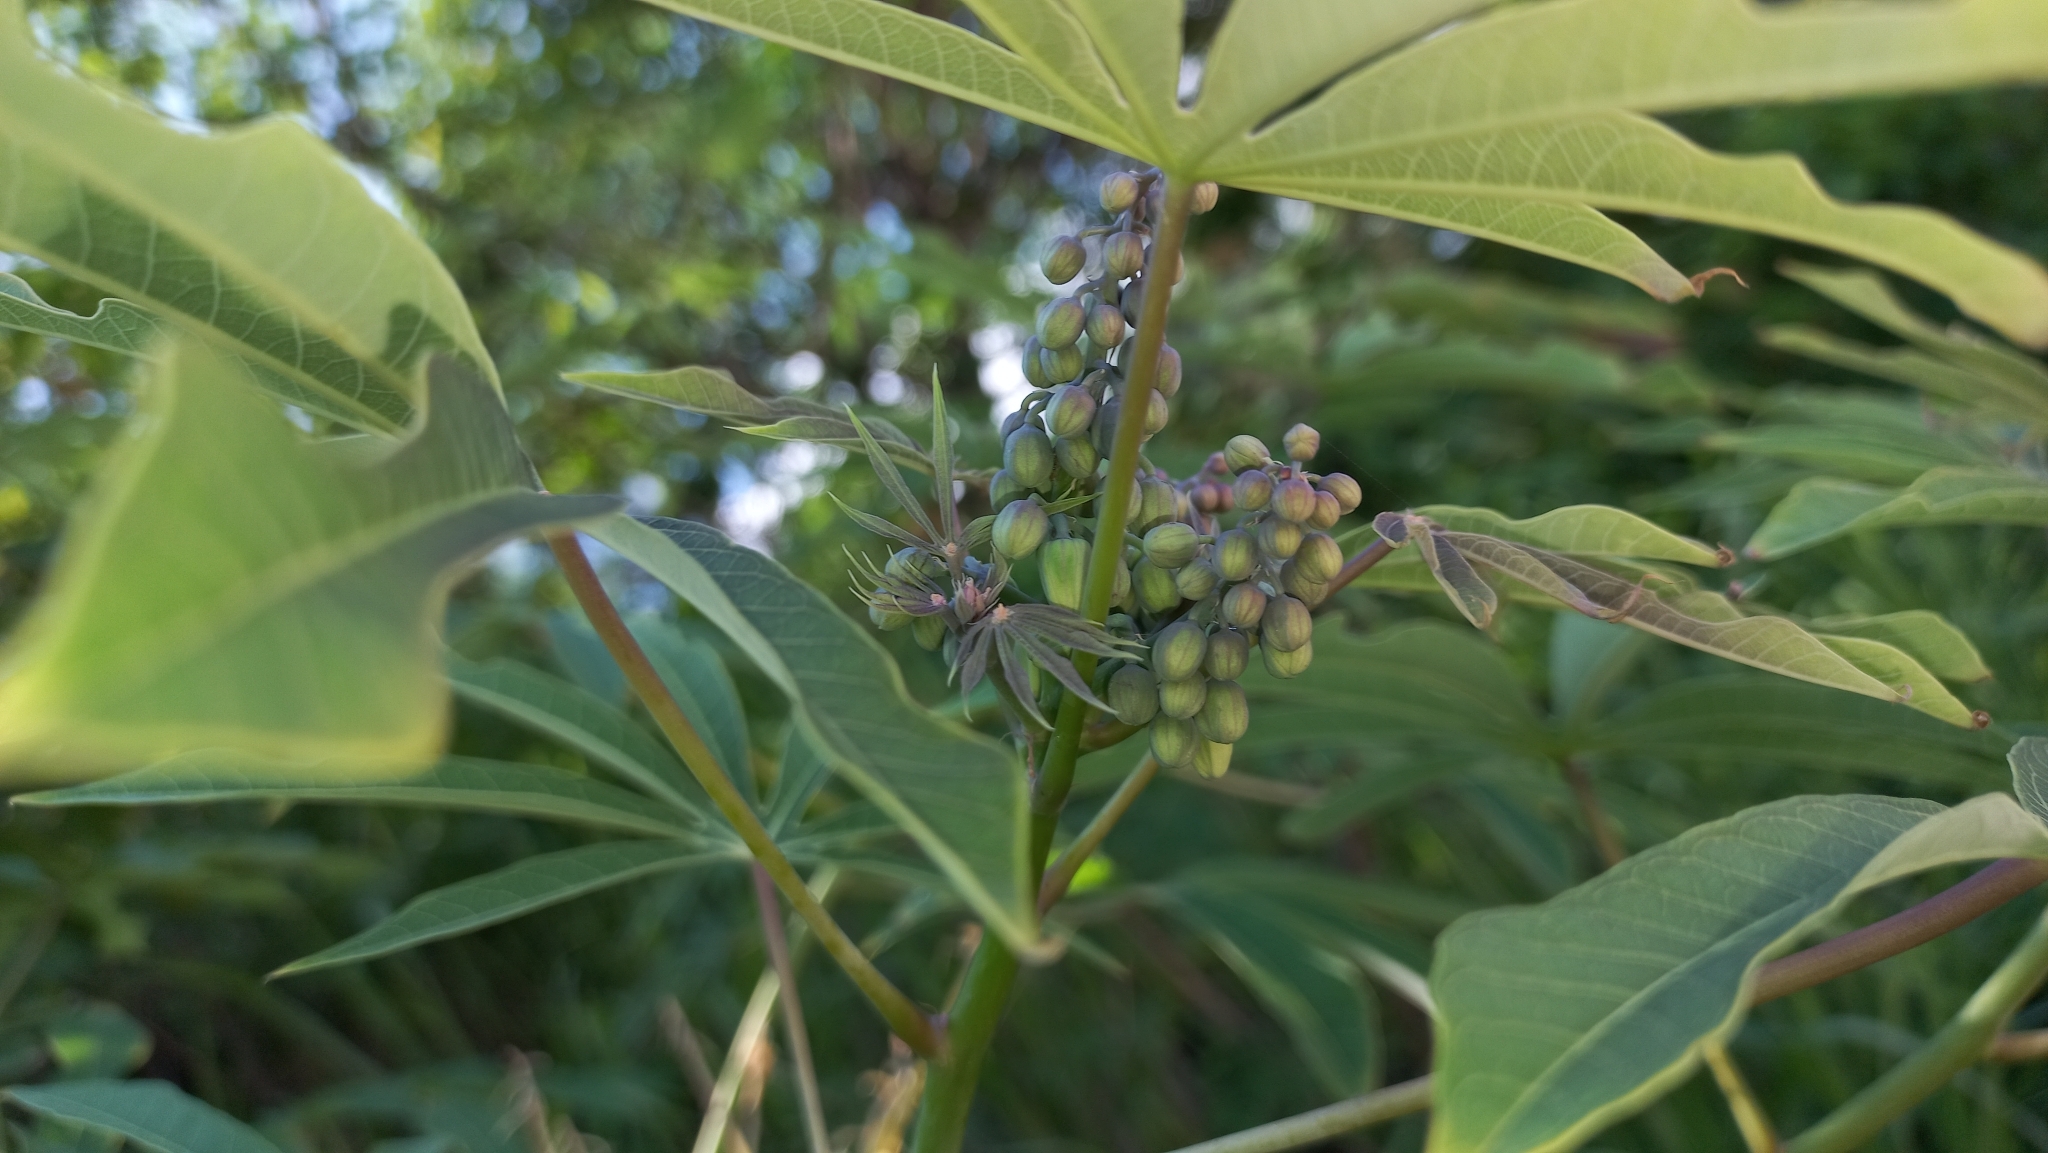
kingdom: Plantae
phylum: Tracheophyta
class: Magnoliopsida
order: Malpighiales
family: Euphorbiaceae
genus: Manihot
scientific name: Manihot grahamii
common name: Graham's manihot
